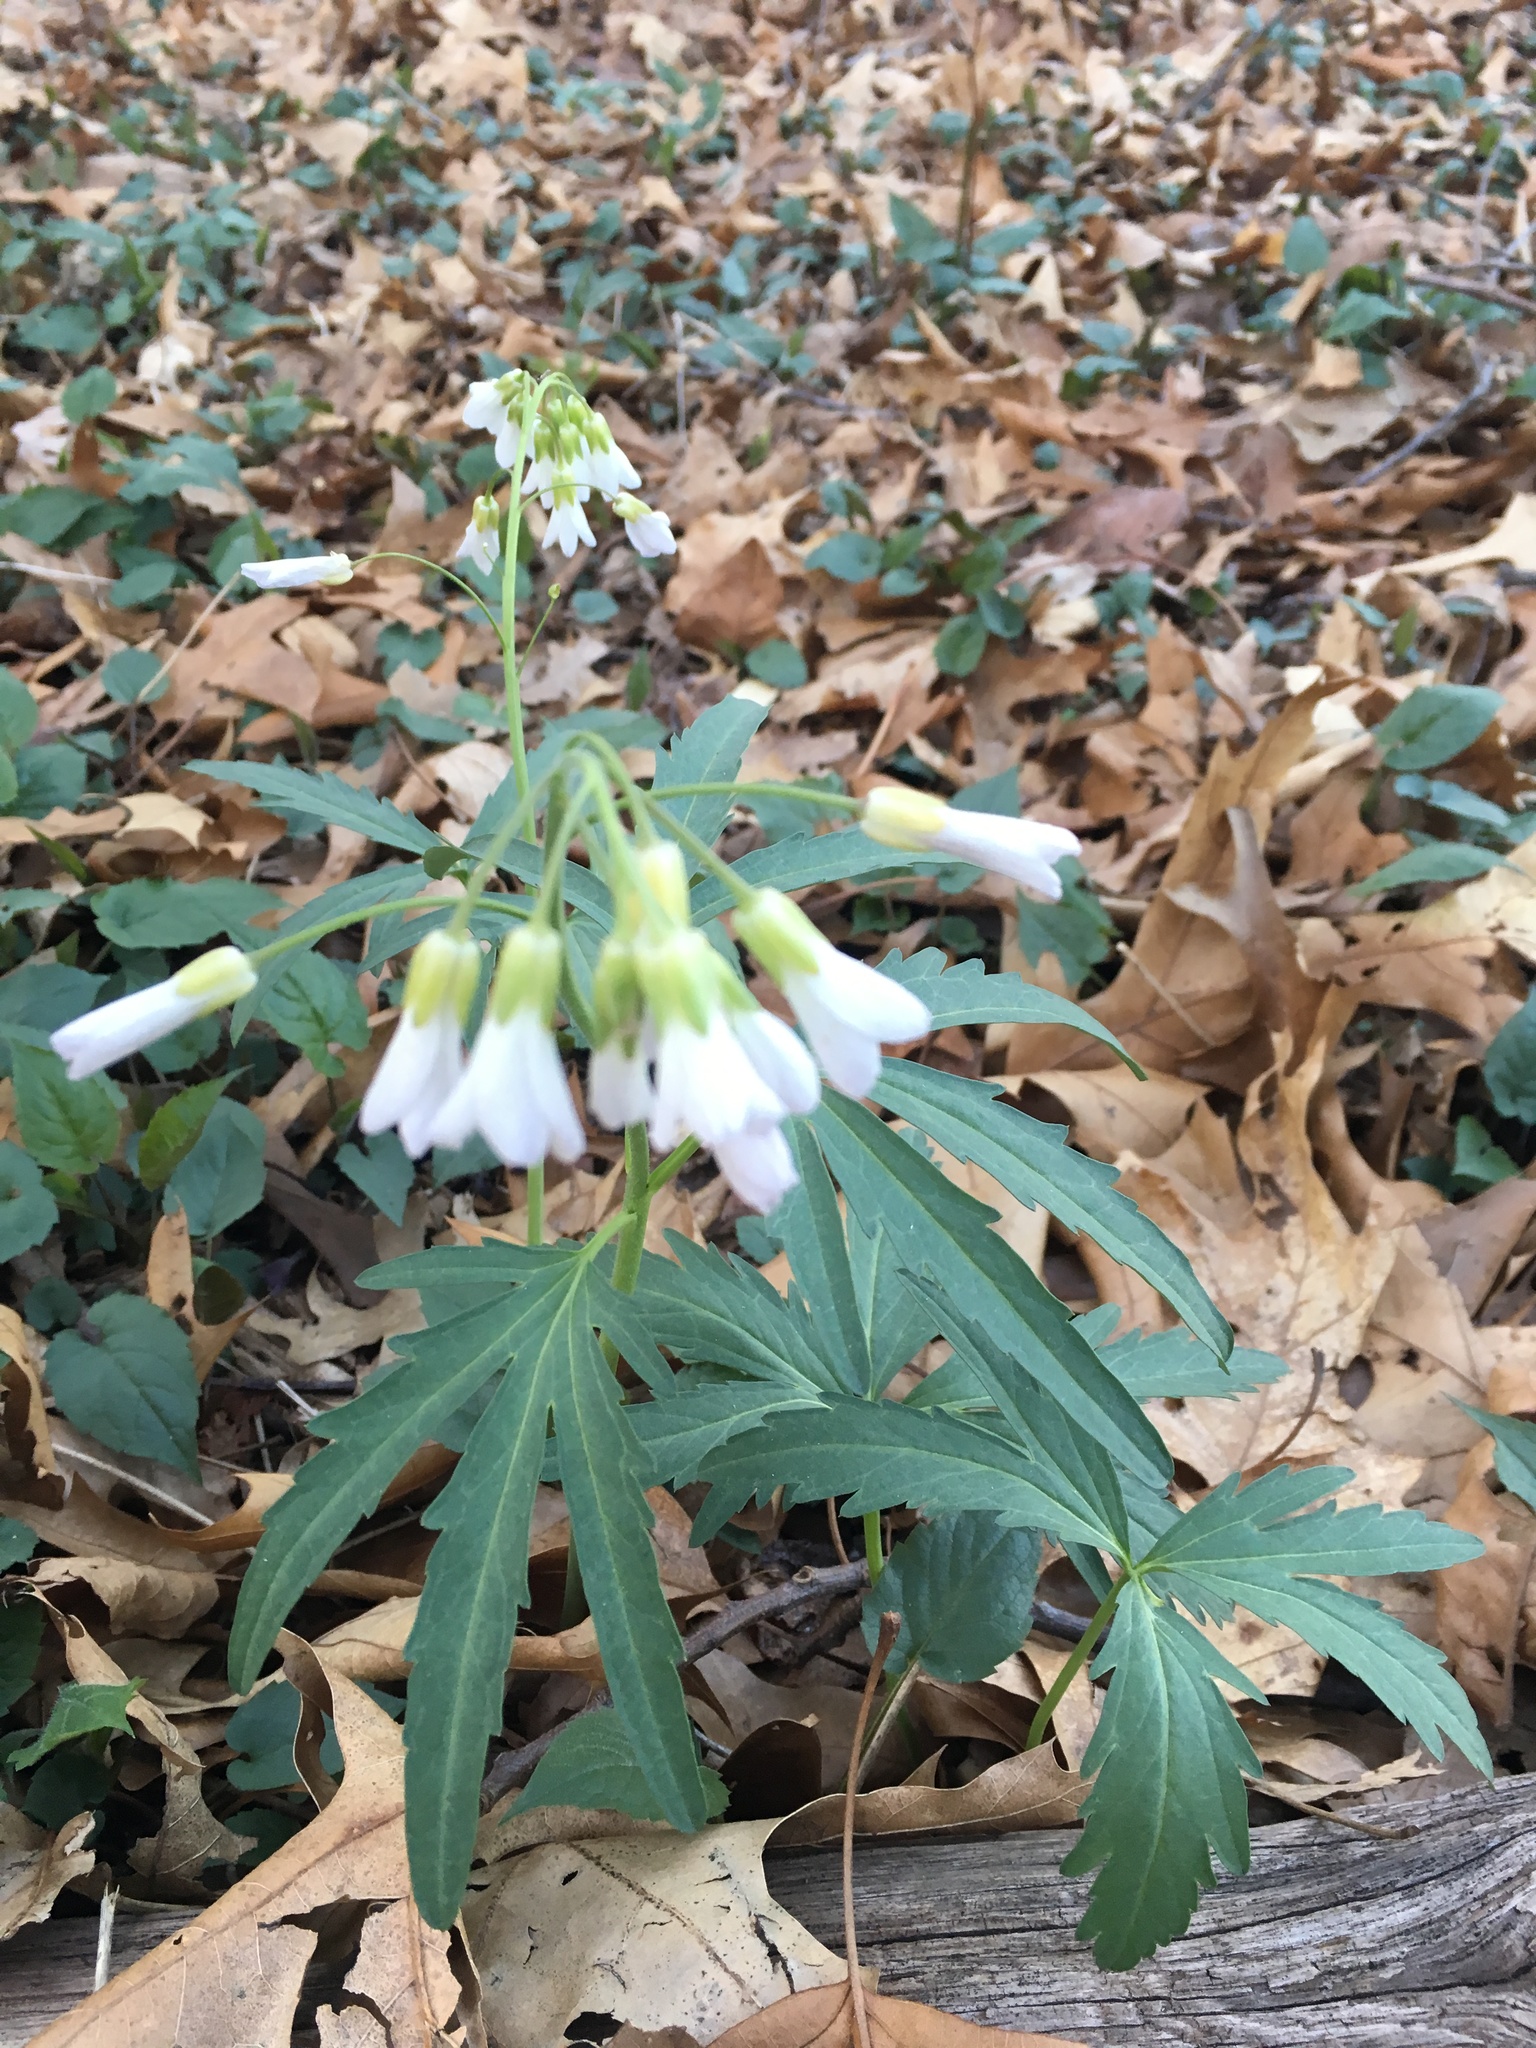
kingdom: Plantae
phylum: Tracheophyta
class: Magnoliopsida
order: Brassicales
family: Brassicaceae
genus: Cardamine
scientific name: Cardamine concatenata
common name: Cut-leaf toothcup
